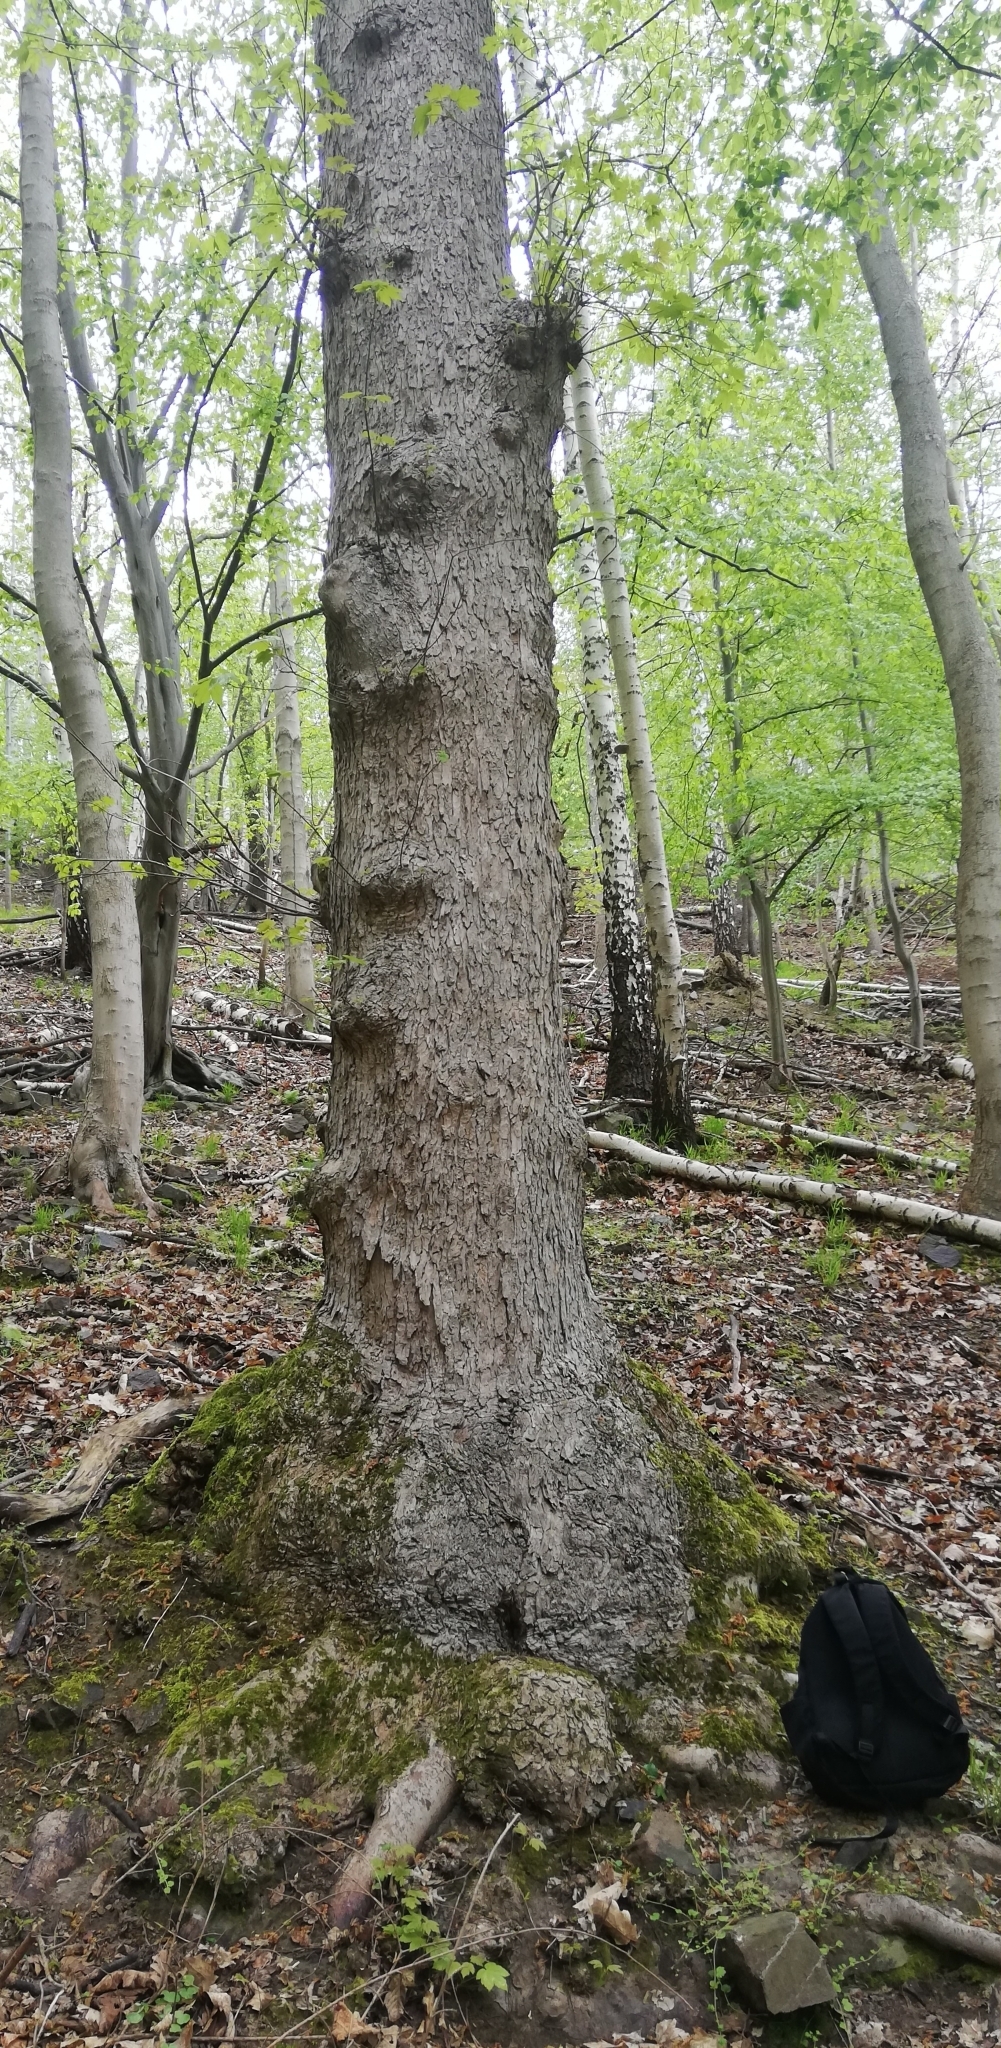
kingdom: Plantae
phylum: Tracheophyta
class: Magnoliopsida
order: Sapindales
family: Sapindaceae
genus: Acer
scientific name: Acer pseudoplatanus
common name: Sycamore
